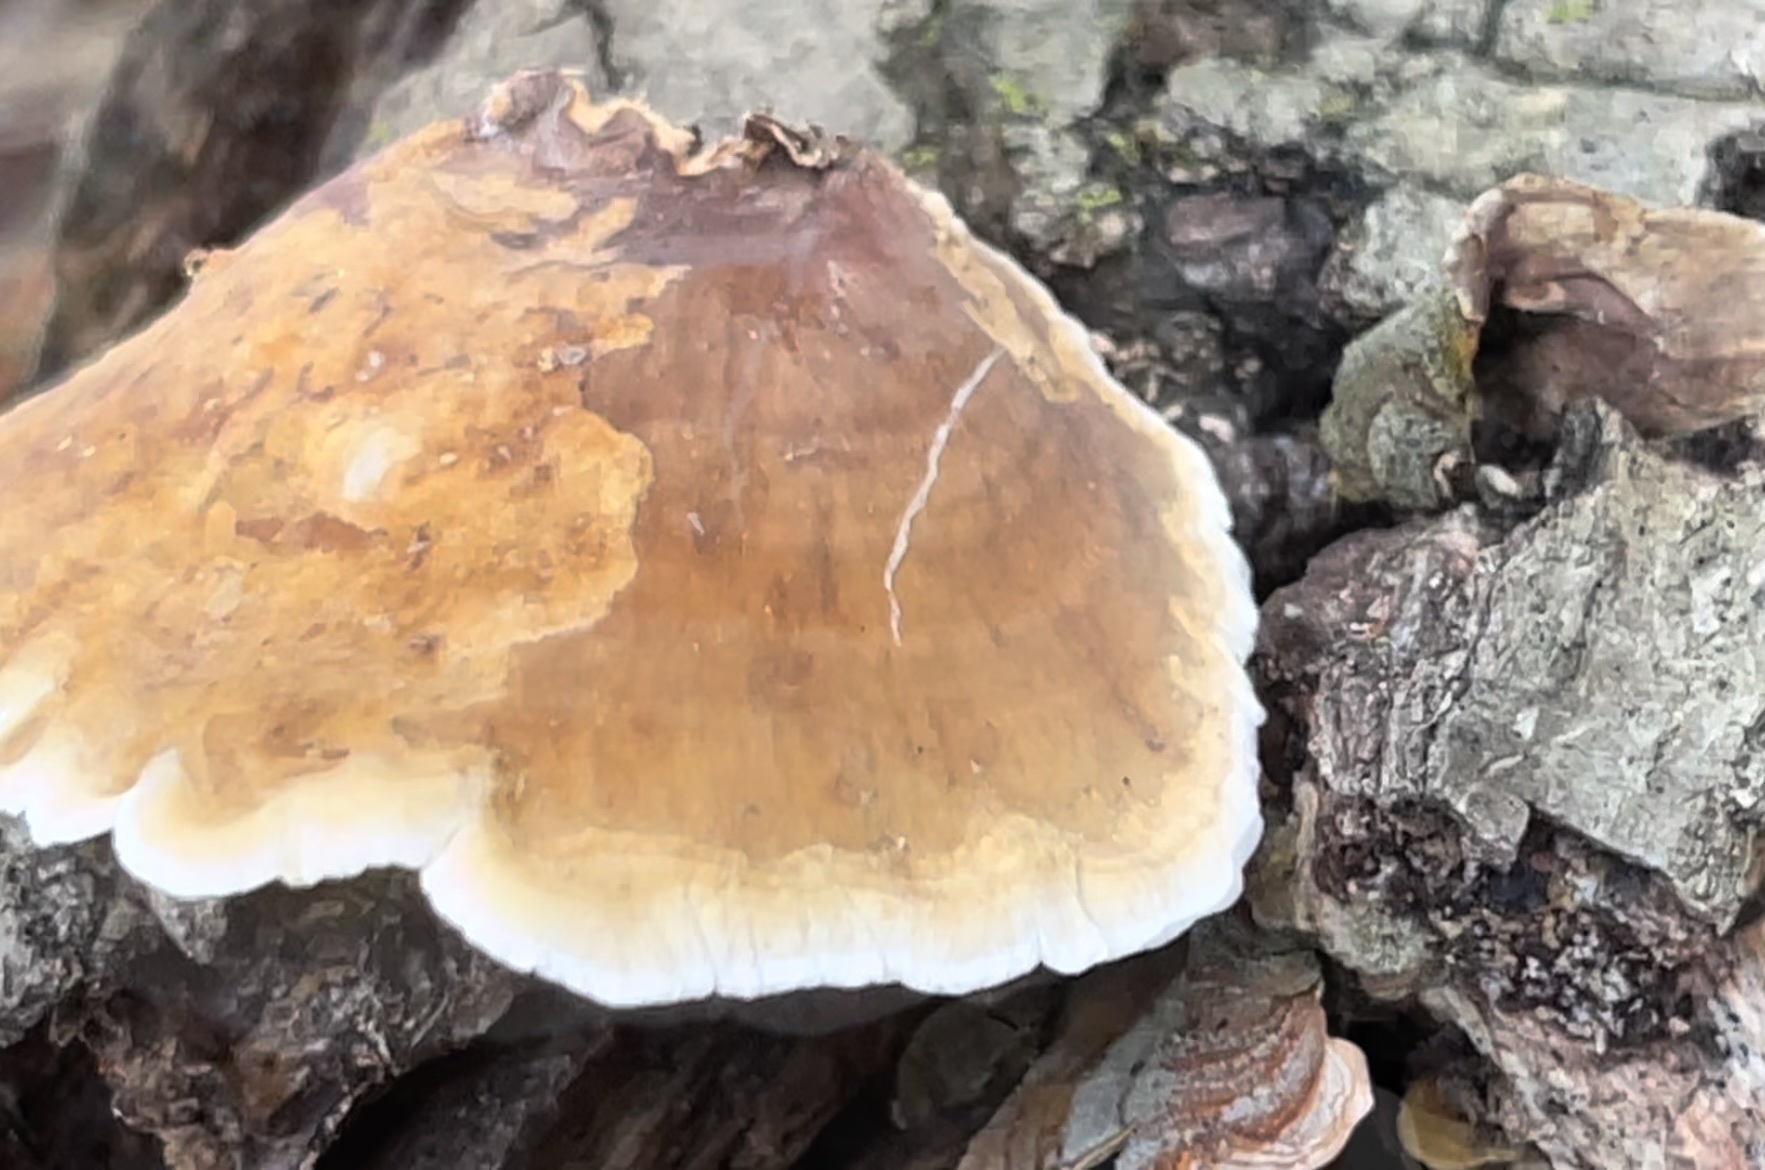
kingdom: Fungi
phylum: Basidiomycota
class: Agaricomycetes
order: Russulales
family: Stereaceae
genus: Stereum
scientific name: Stereum lobatum
